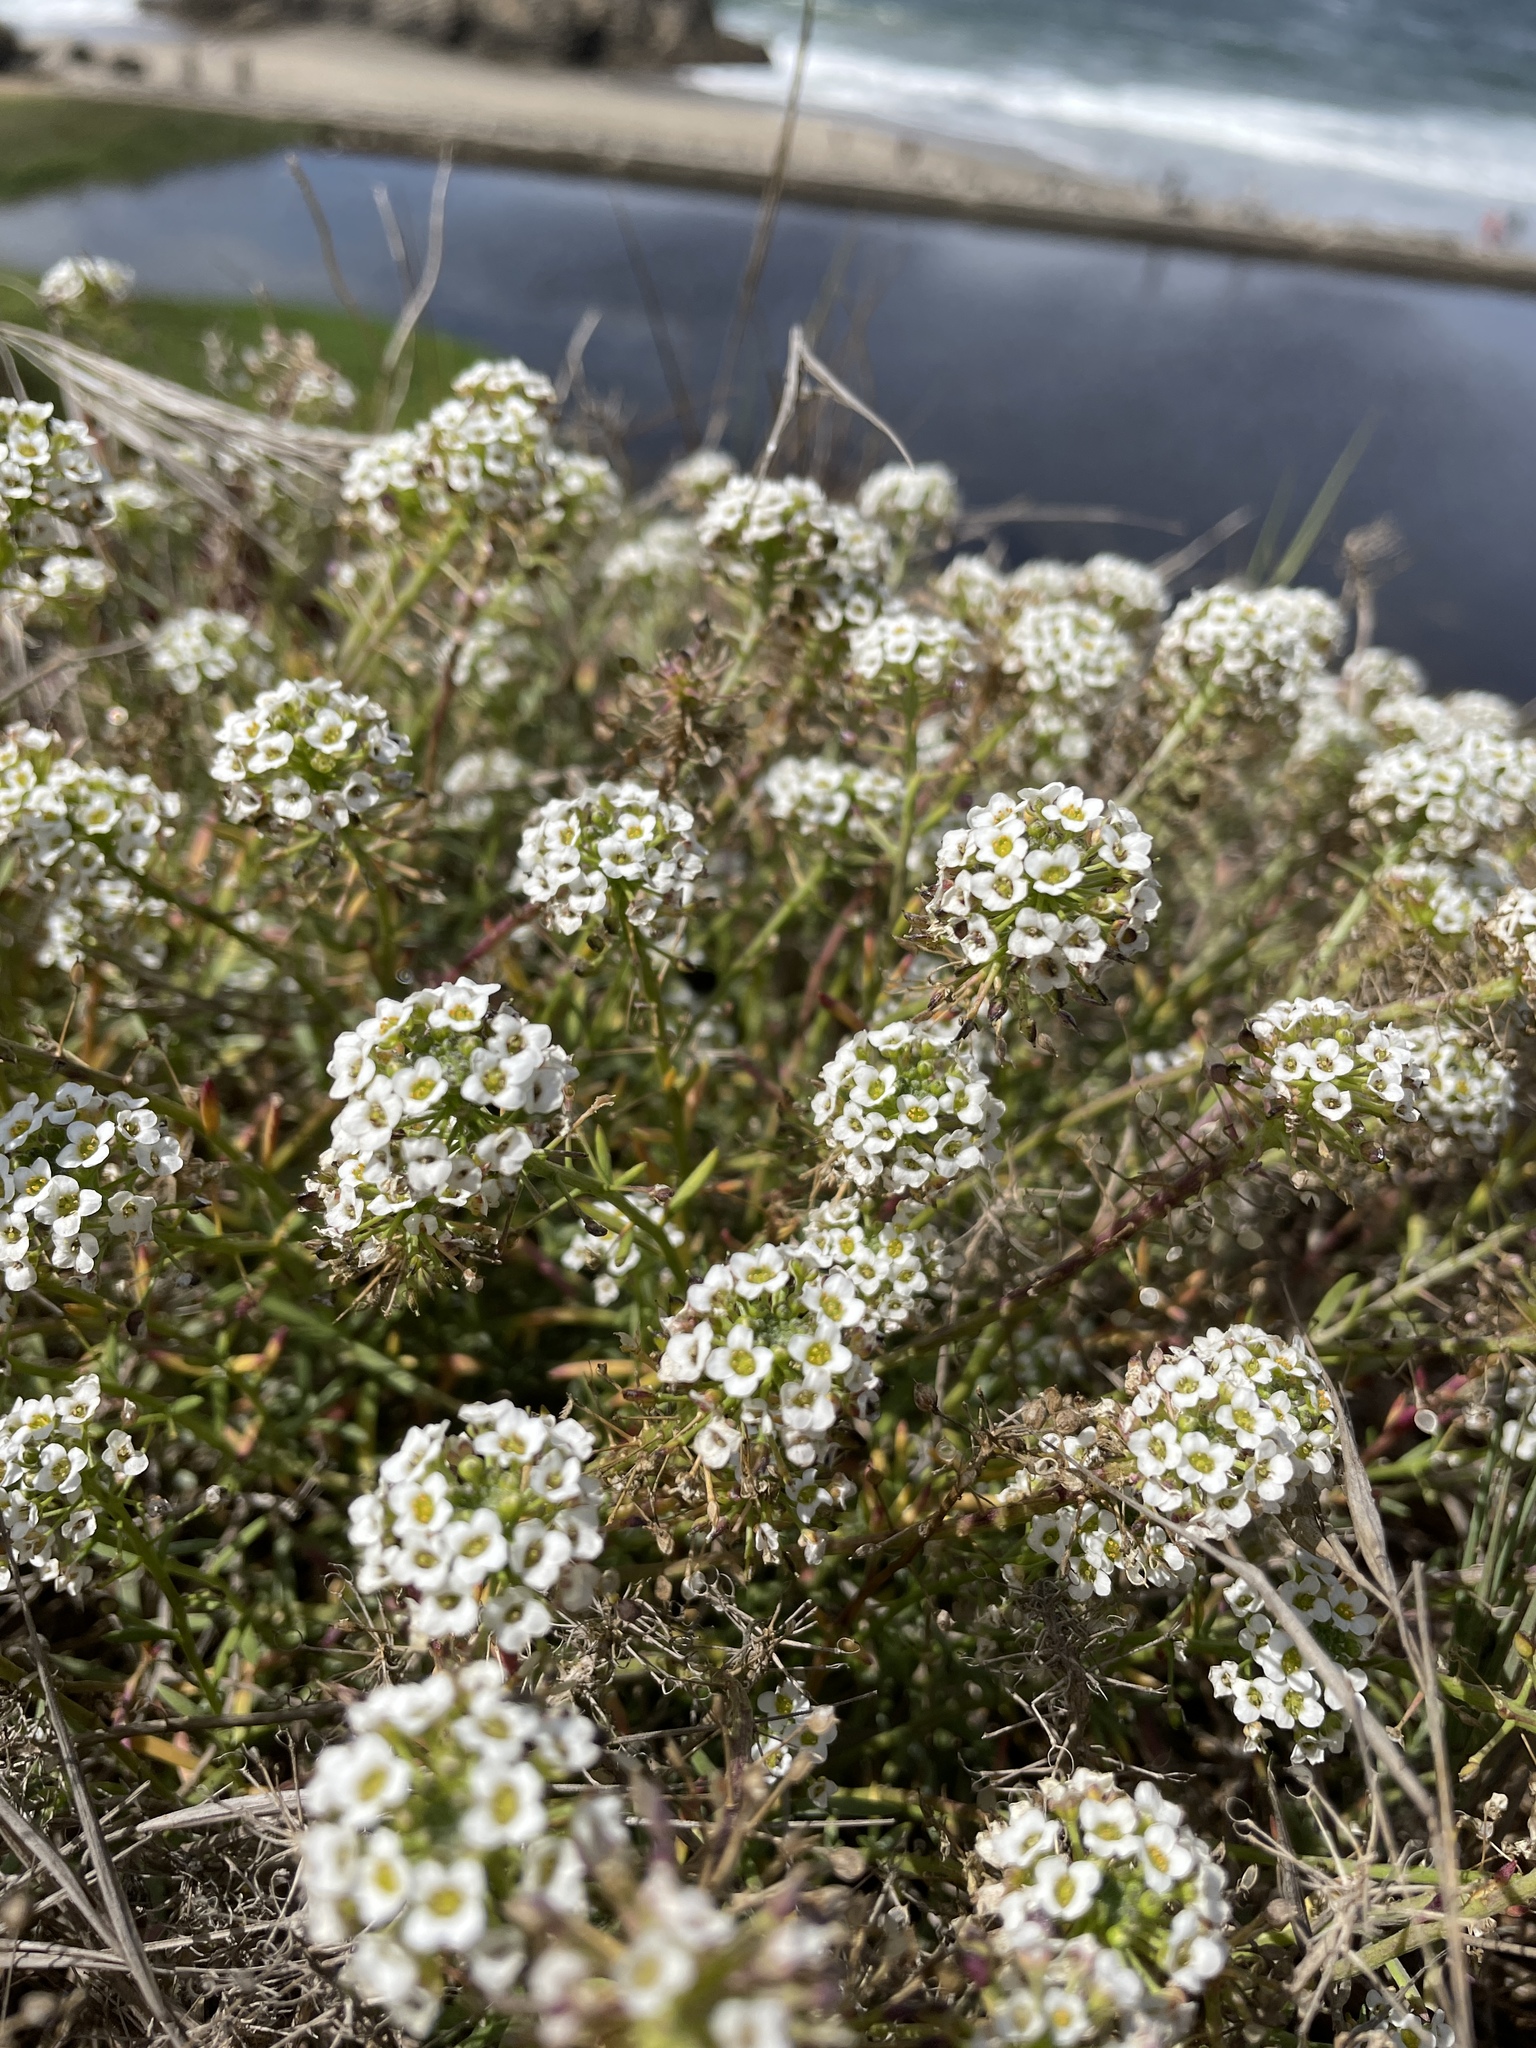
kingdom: Plantae
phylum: Tracheophyta
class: Magnoliopsida
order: Brassicales
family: Brassicaceae
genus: Lobularia
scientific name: Lobularia maritima
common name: Sweet alison
